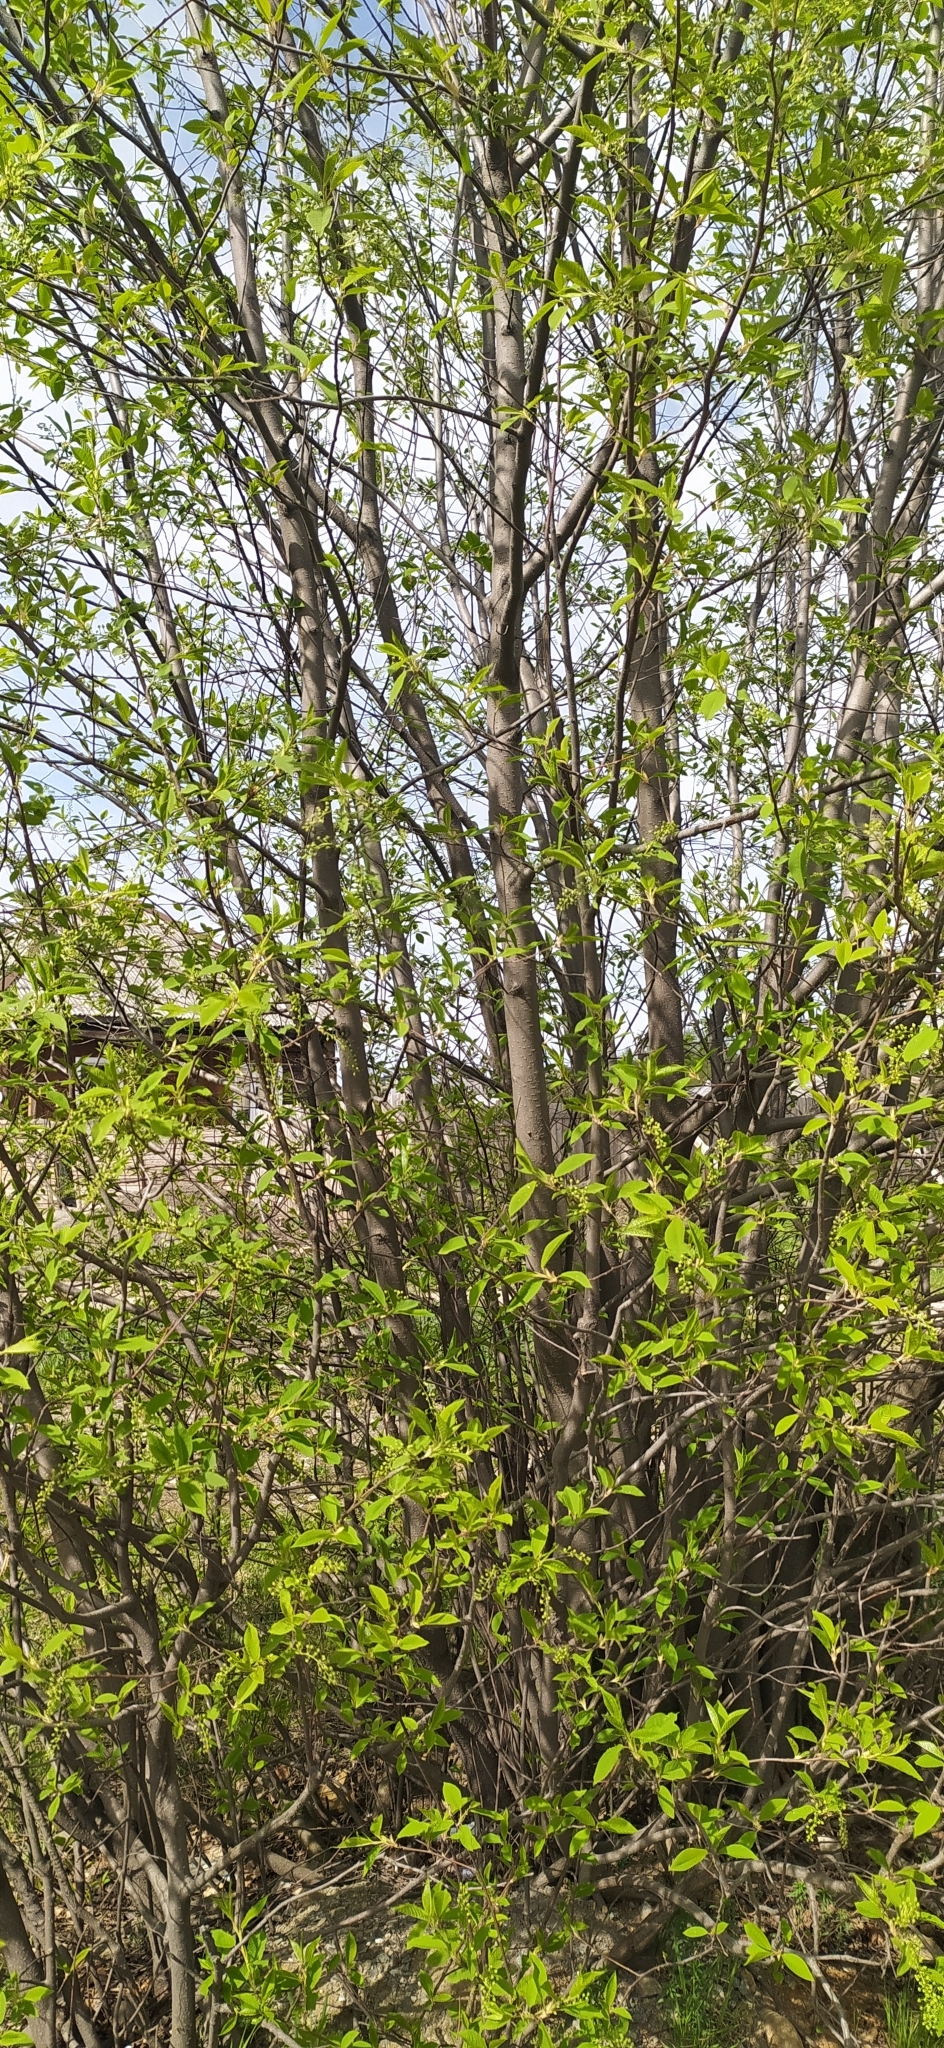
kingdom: Plantae
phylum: Tracheophyta
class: Magnoliopsida
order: Rosales
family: Rosaceae
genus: Prunus
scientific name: Prunus padus
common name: Bird cherry
